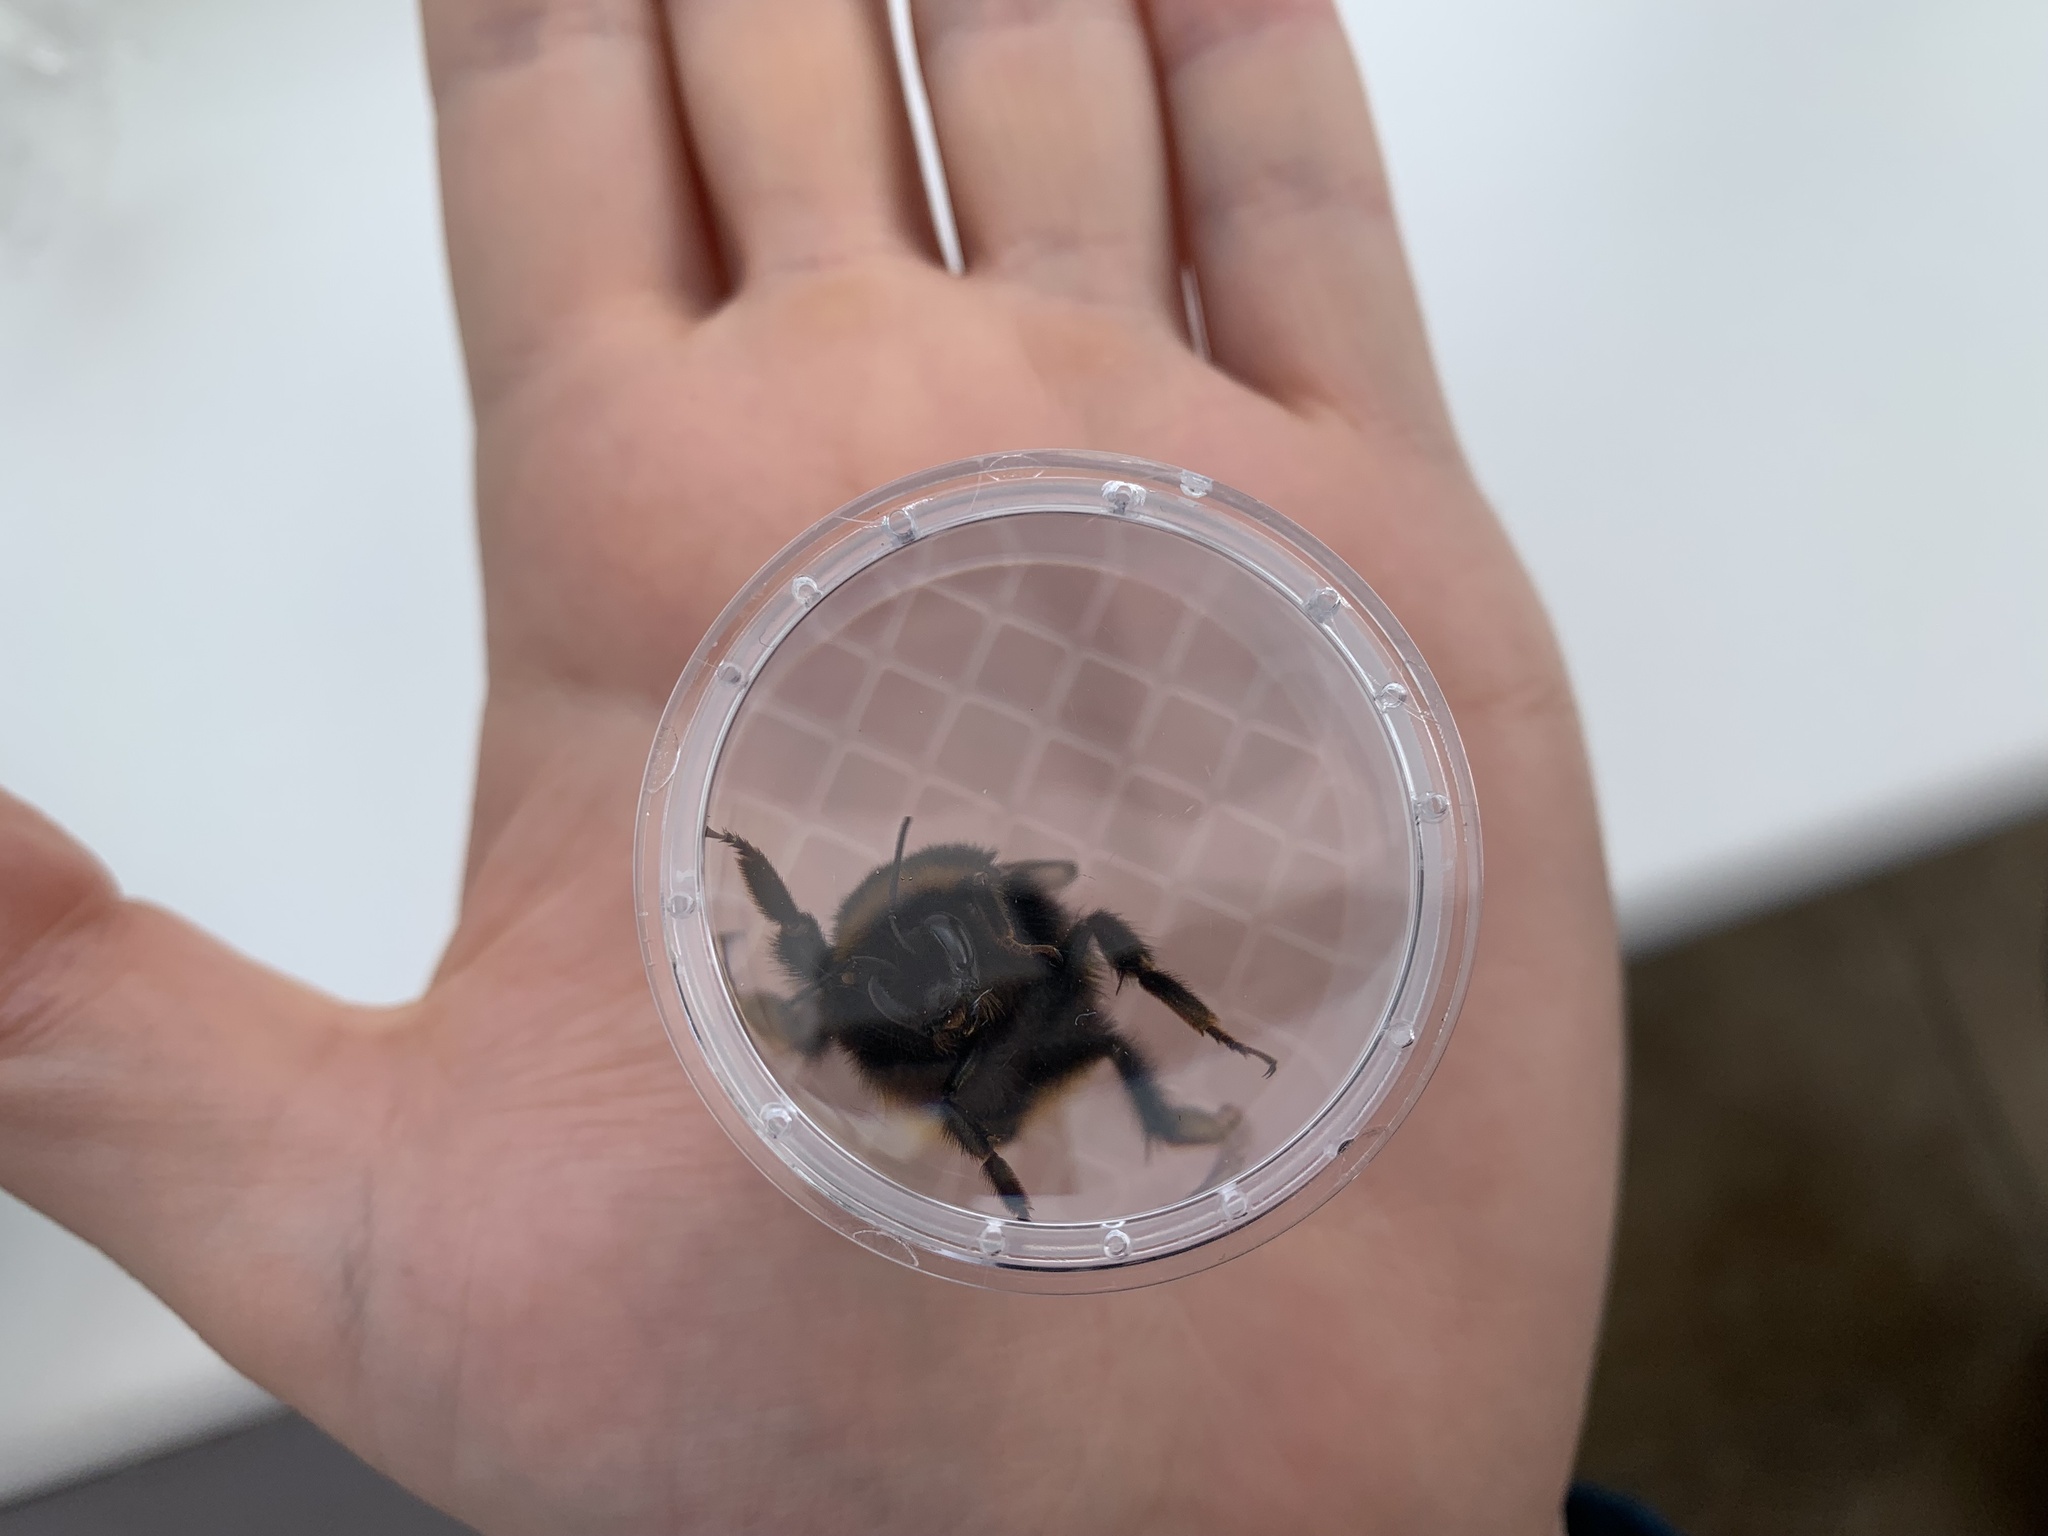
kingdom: Animalia
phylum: Arthropoda
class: Insecta
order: Hymenoptera
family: Apidae
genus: Bombus
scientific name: Bombus terrestris
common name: Buff-tailed bumblebee
